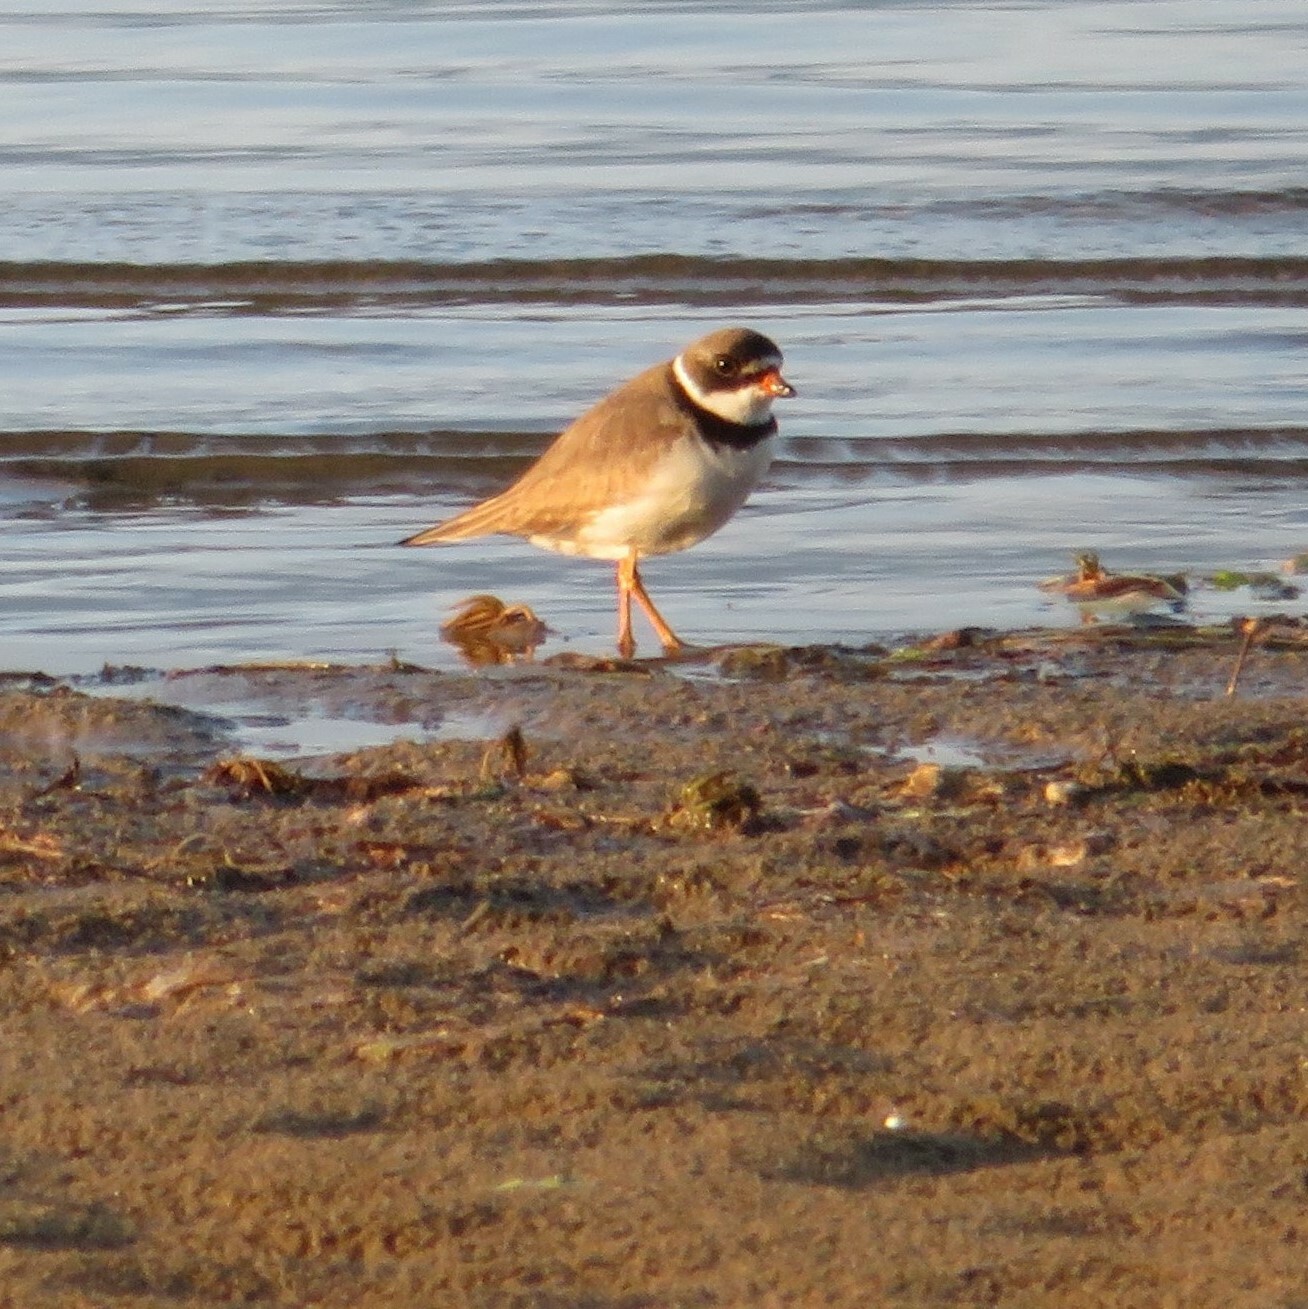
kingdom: Animalia
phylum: Chordata
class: Aves
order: Charadriiformes
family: Charadriidae
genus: Charadrius
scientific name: Charadrius semipalmatus
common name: Semipalmated plover
